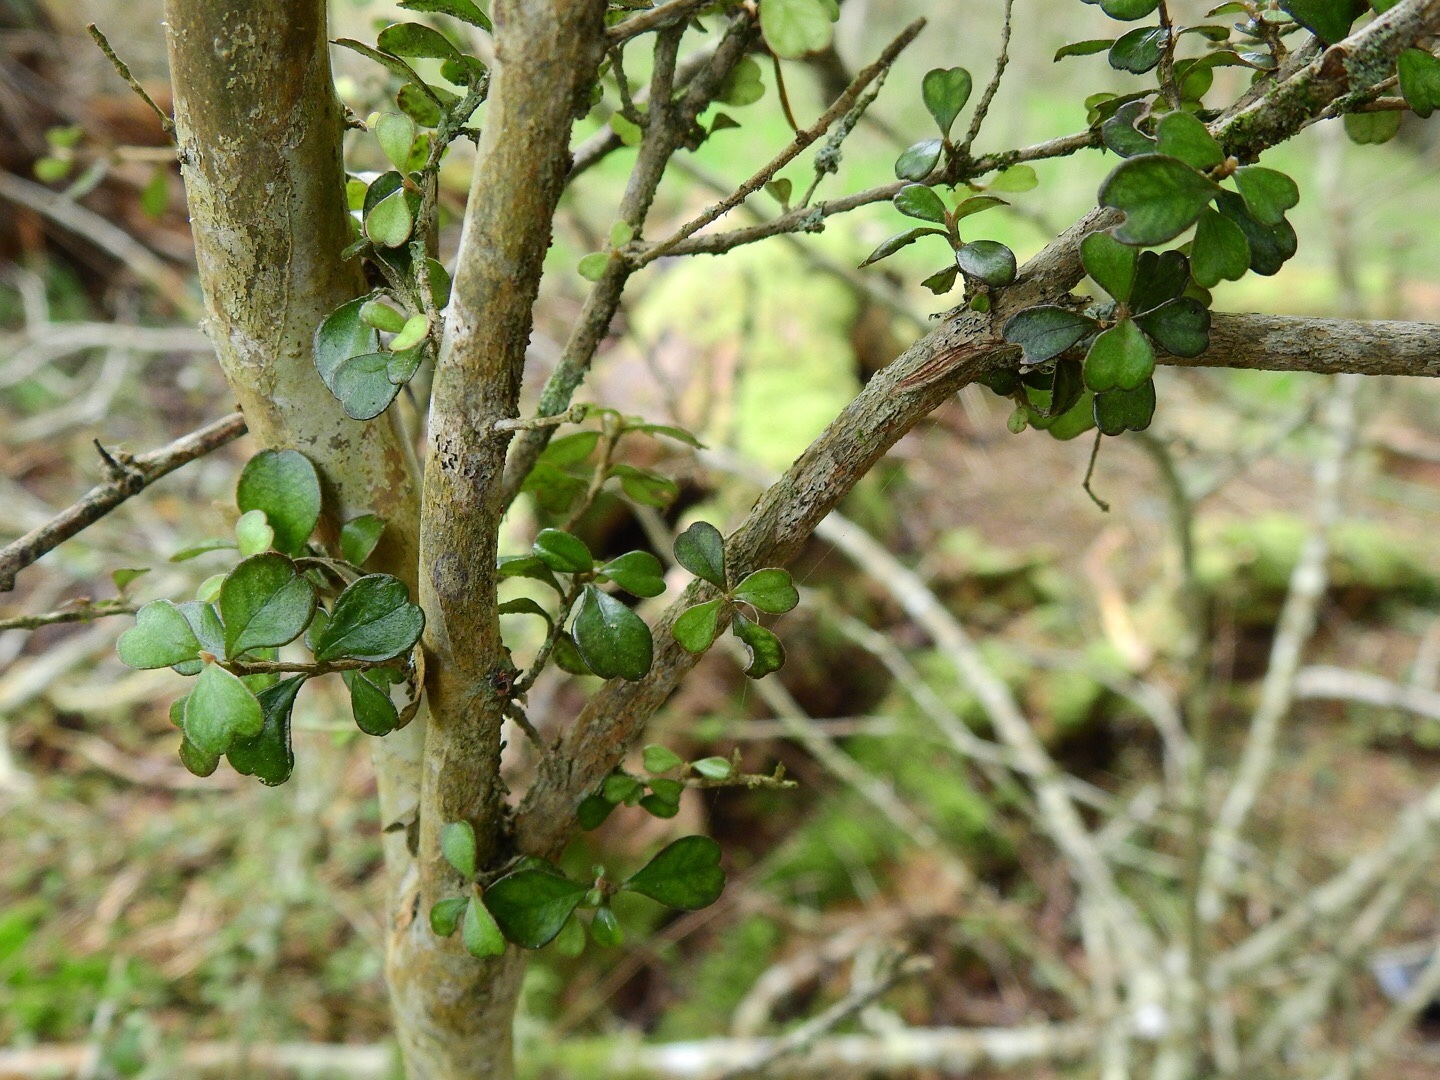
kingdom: Plantae
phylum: Tracheophyta
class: Magnoliopsida
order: Myrtales
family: Myrtaceae
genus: Lophomyrtus
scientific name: Lophomyrtus obcordata
